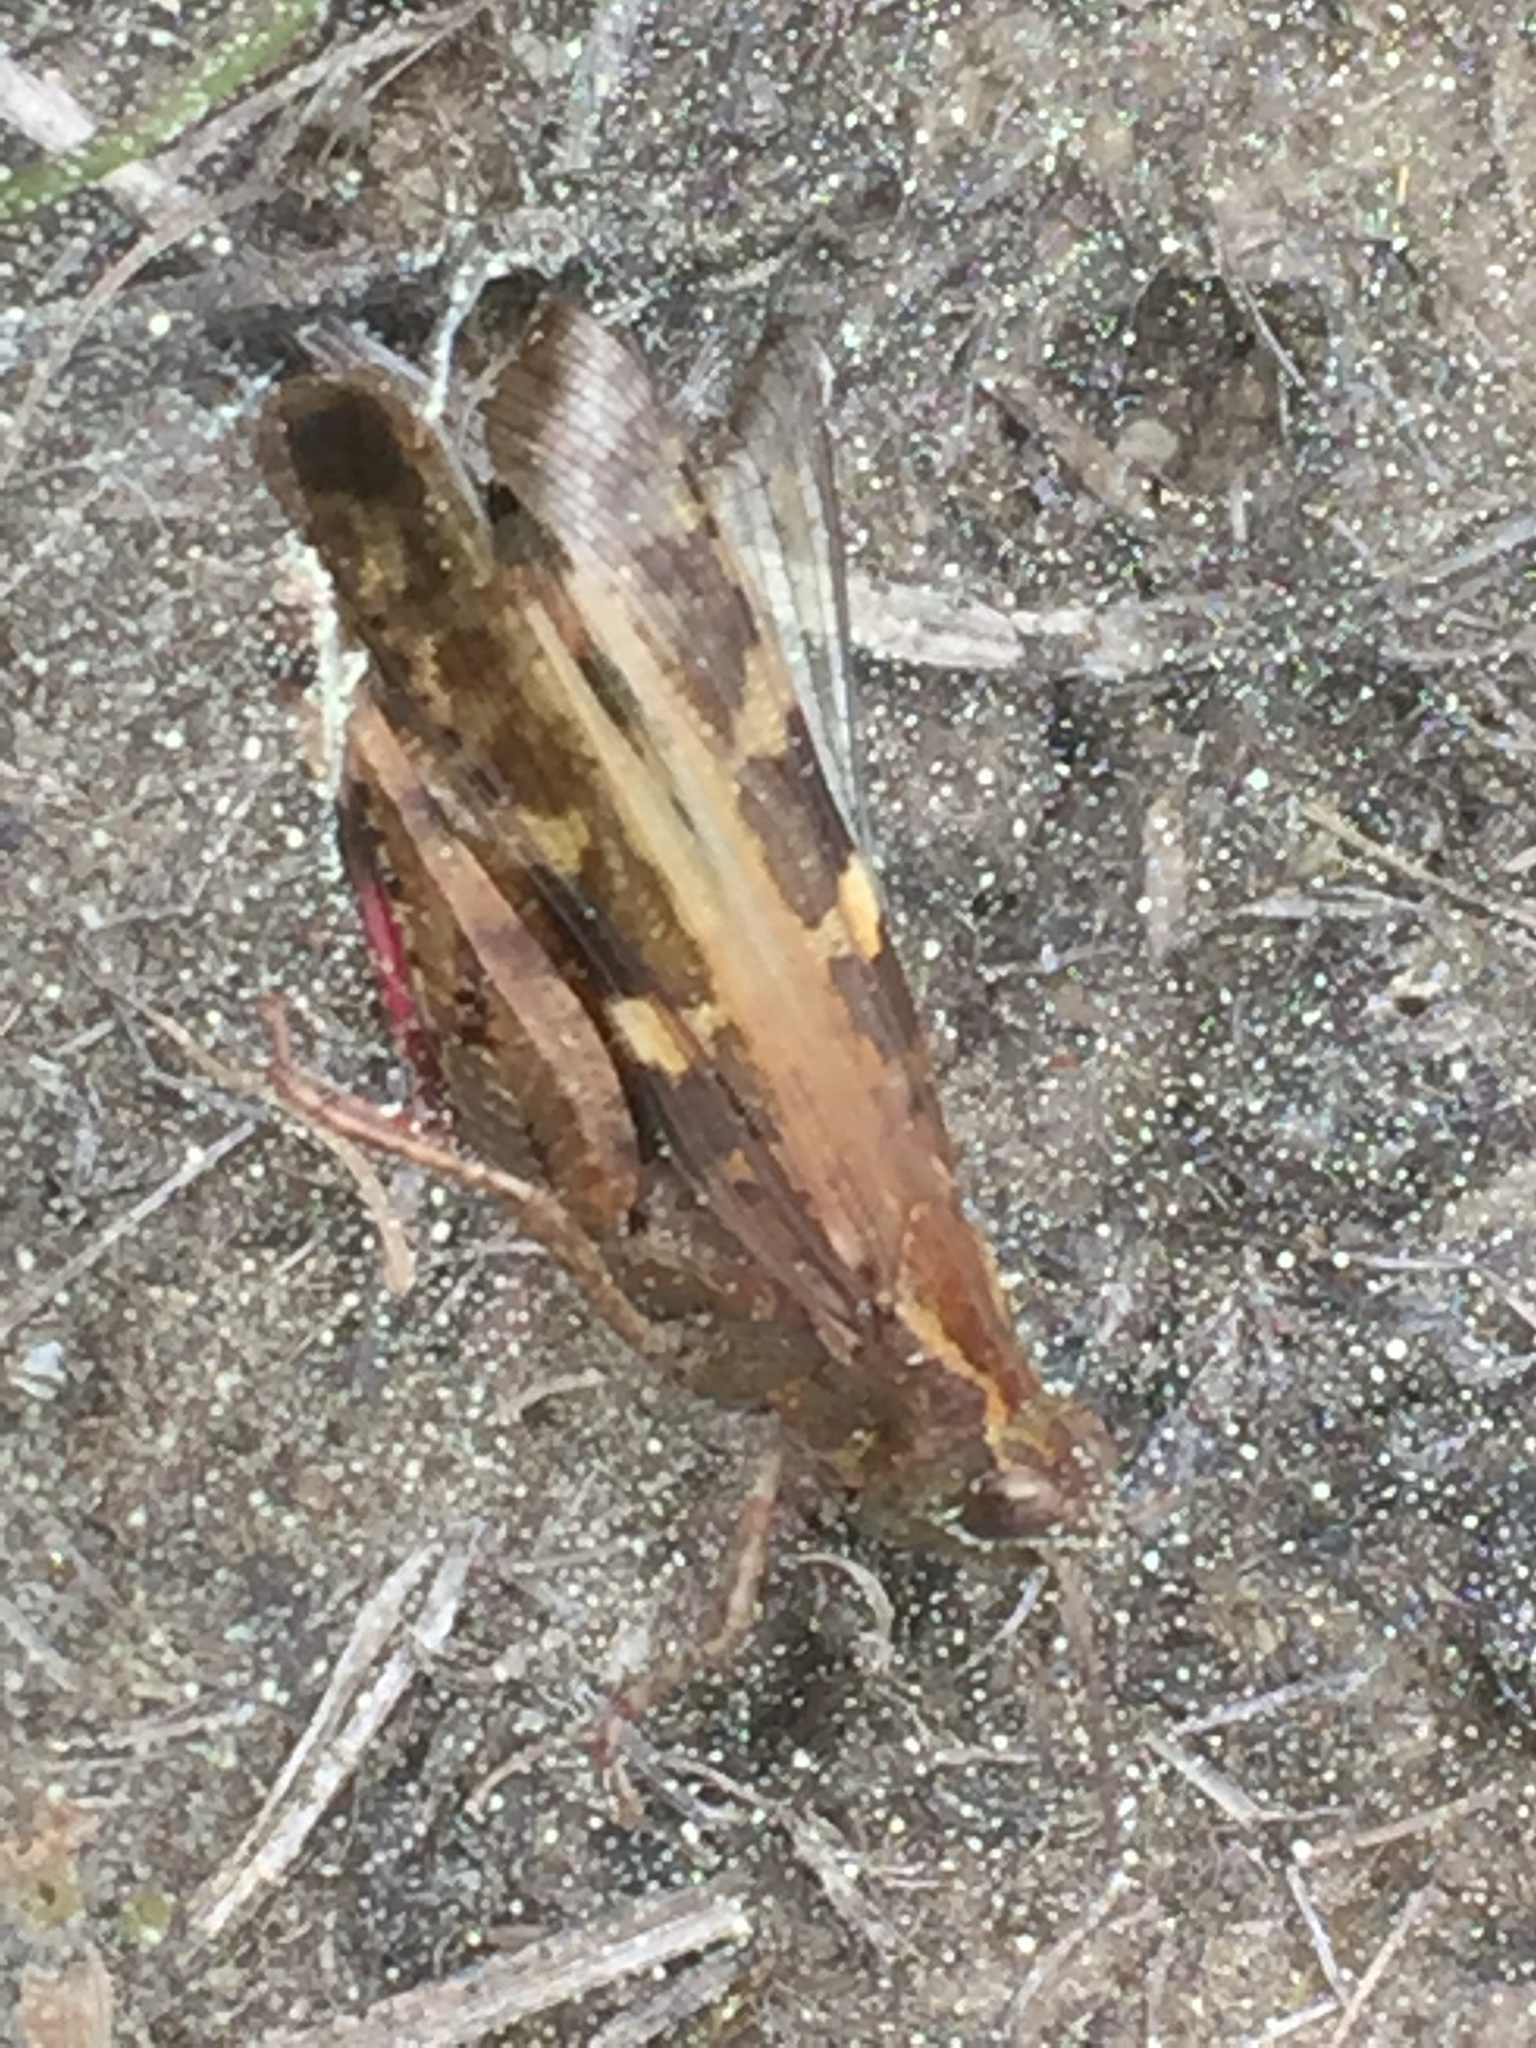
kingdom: Animalia
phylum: Arthropoda
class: Insecta
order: Orthoptera
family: Acrididae
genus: Aiolopus
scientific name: Aiolopus strepens
